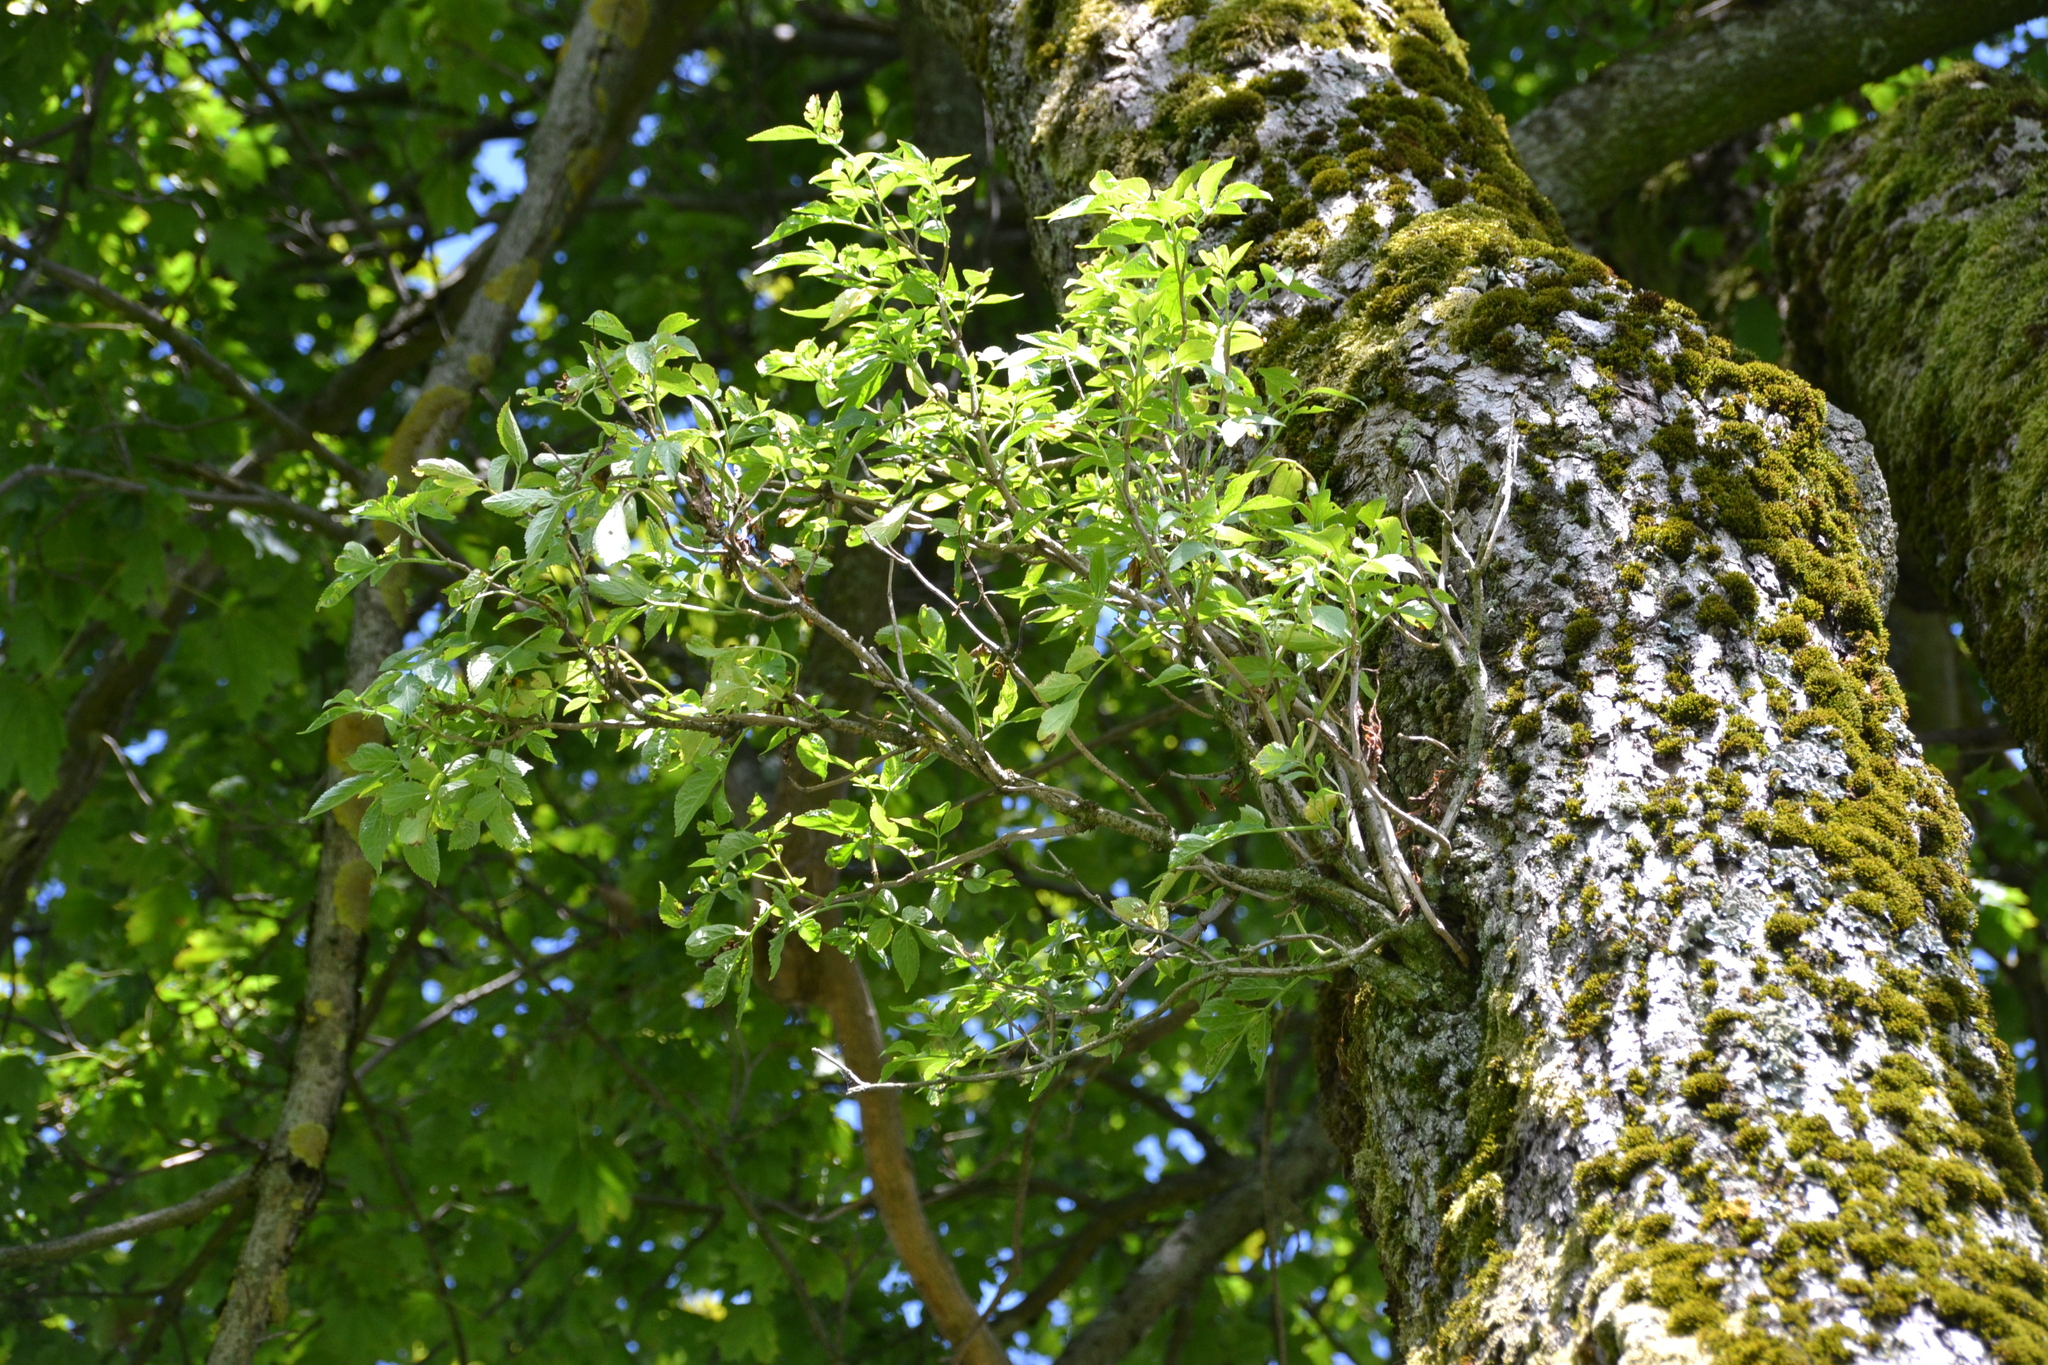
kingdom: Plantae
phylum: Tracheophyta
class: Magnoliopsida
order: Dipsacales
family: Viburnaceae
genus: Sambucus
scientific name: Sambucus nigra
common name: Elder
